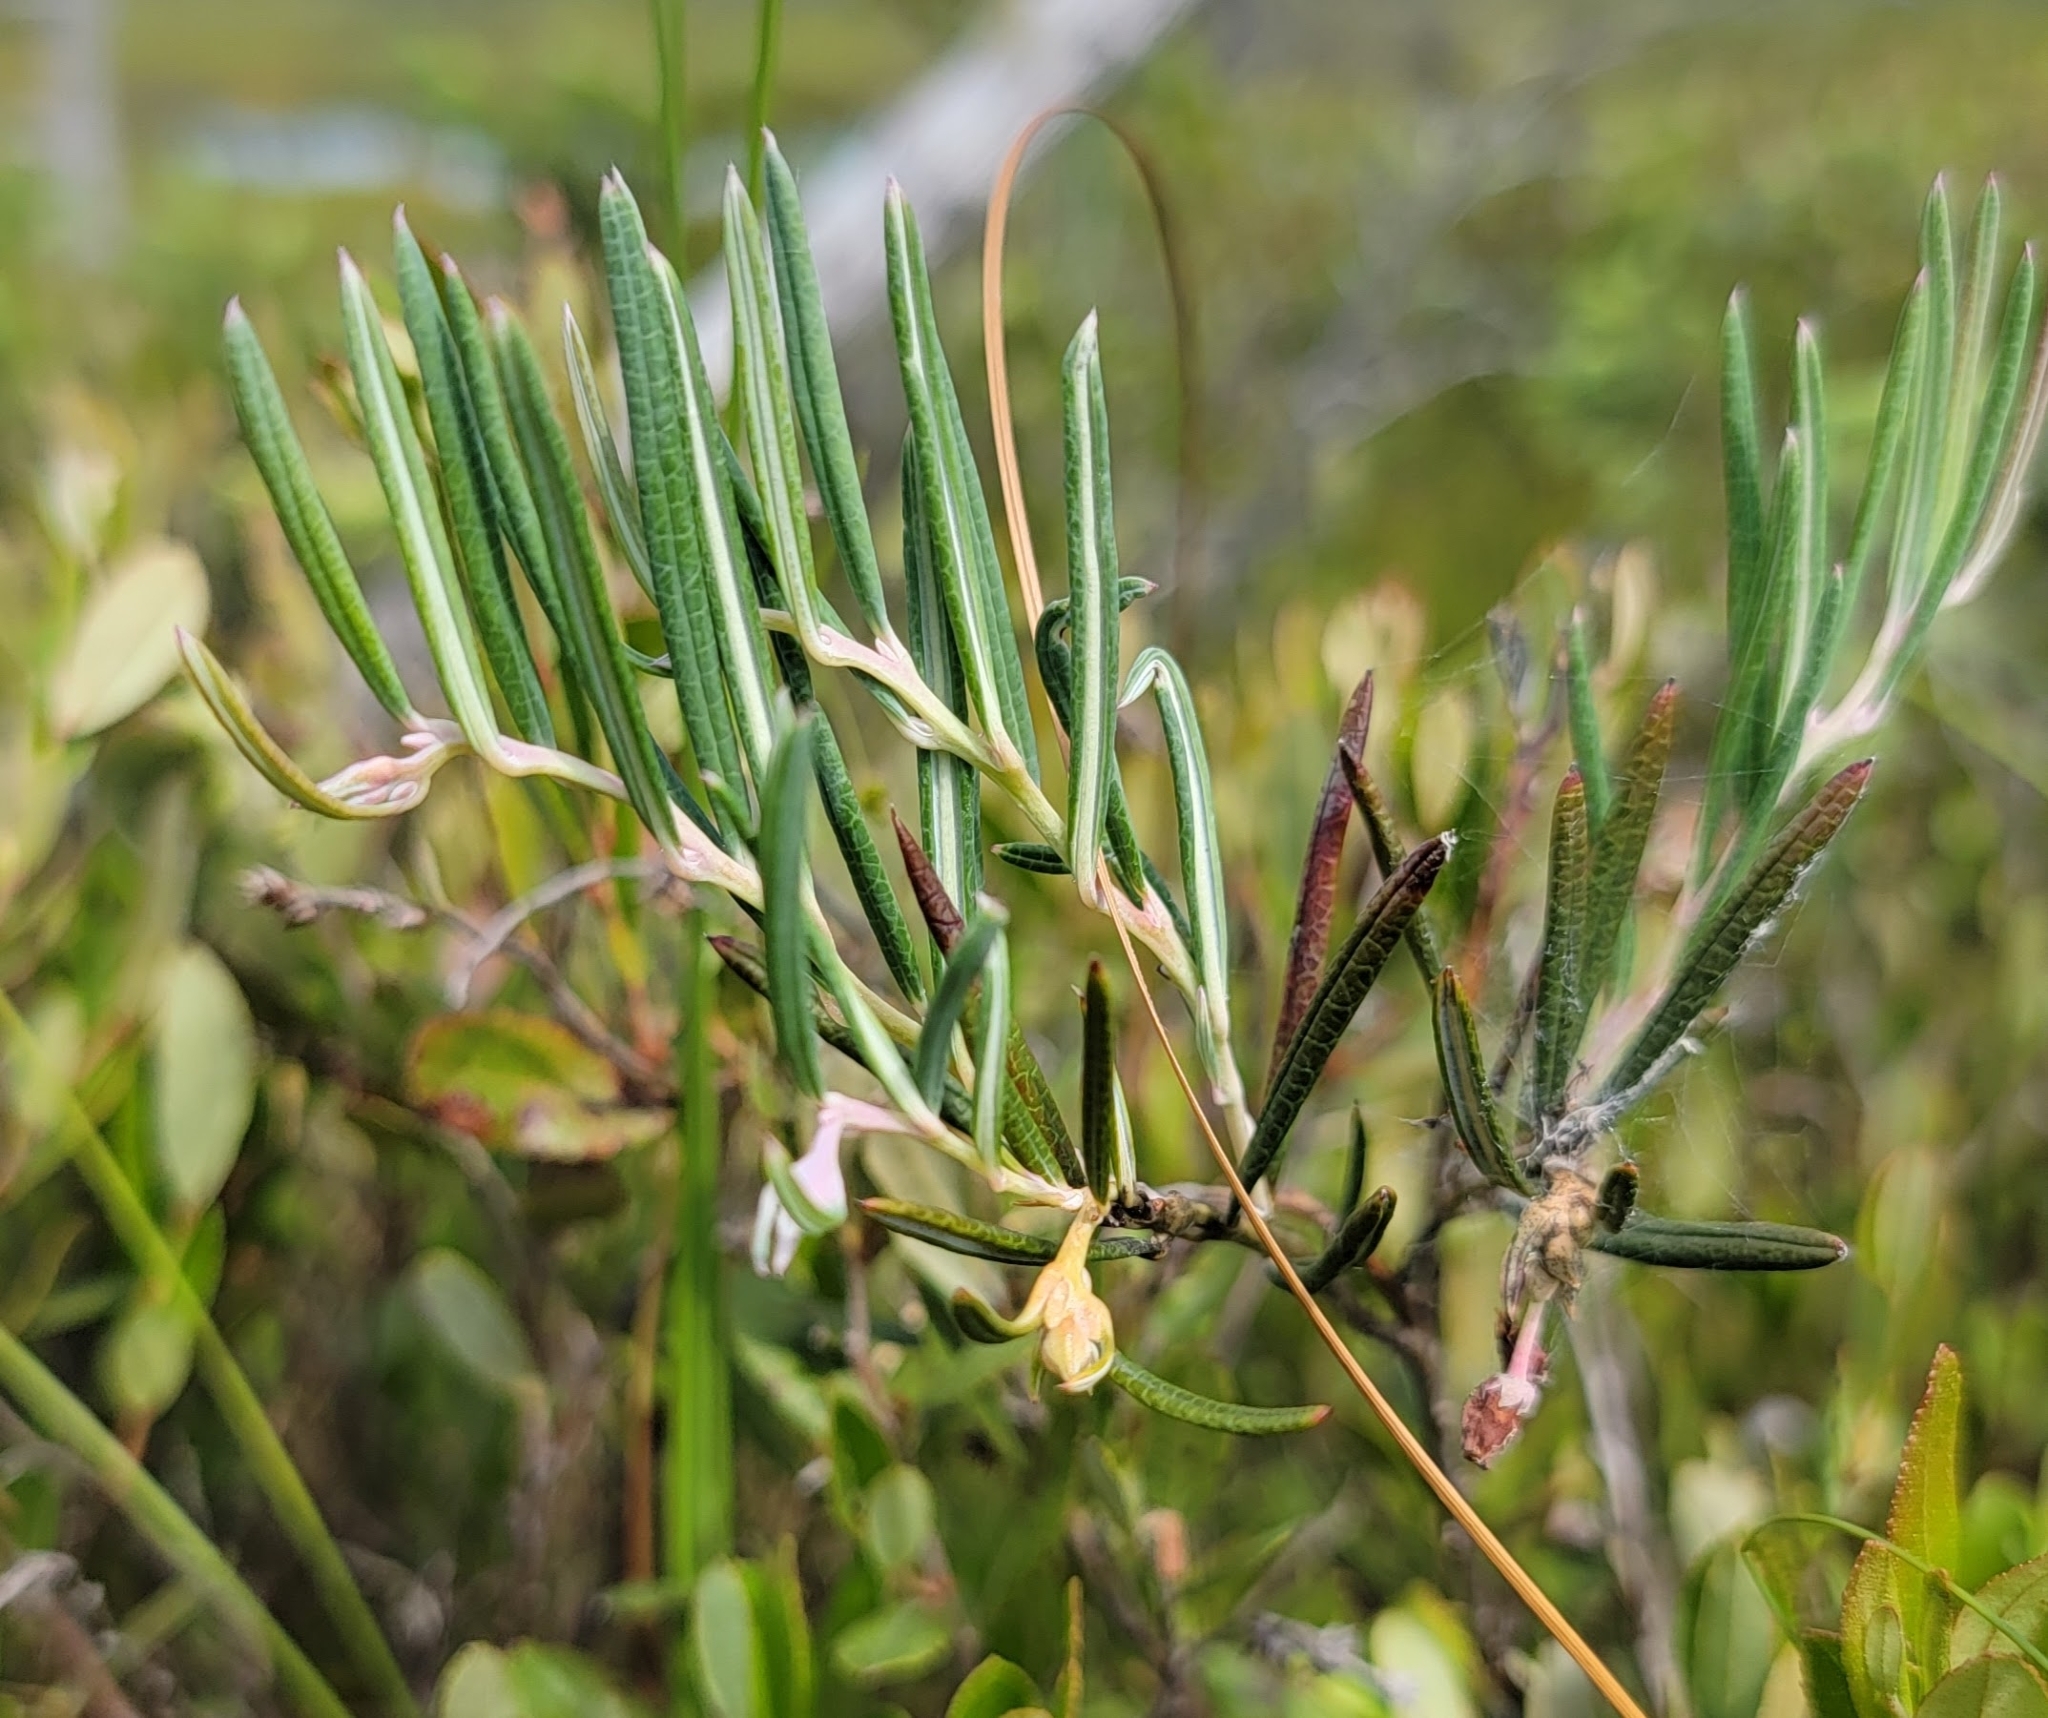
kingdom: Plantae
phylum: Tracheophyta
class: Magnoliopsida
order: Ericales
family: Ericaceae
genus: Andromeda
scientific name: Andromeda polifolia
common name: Bog-rosemary
